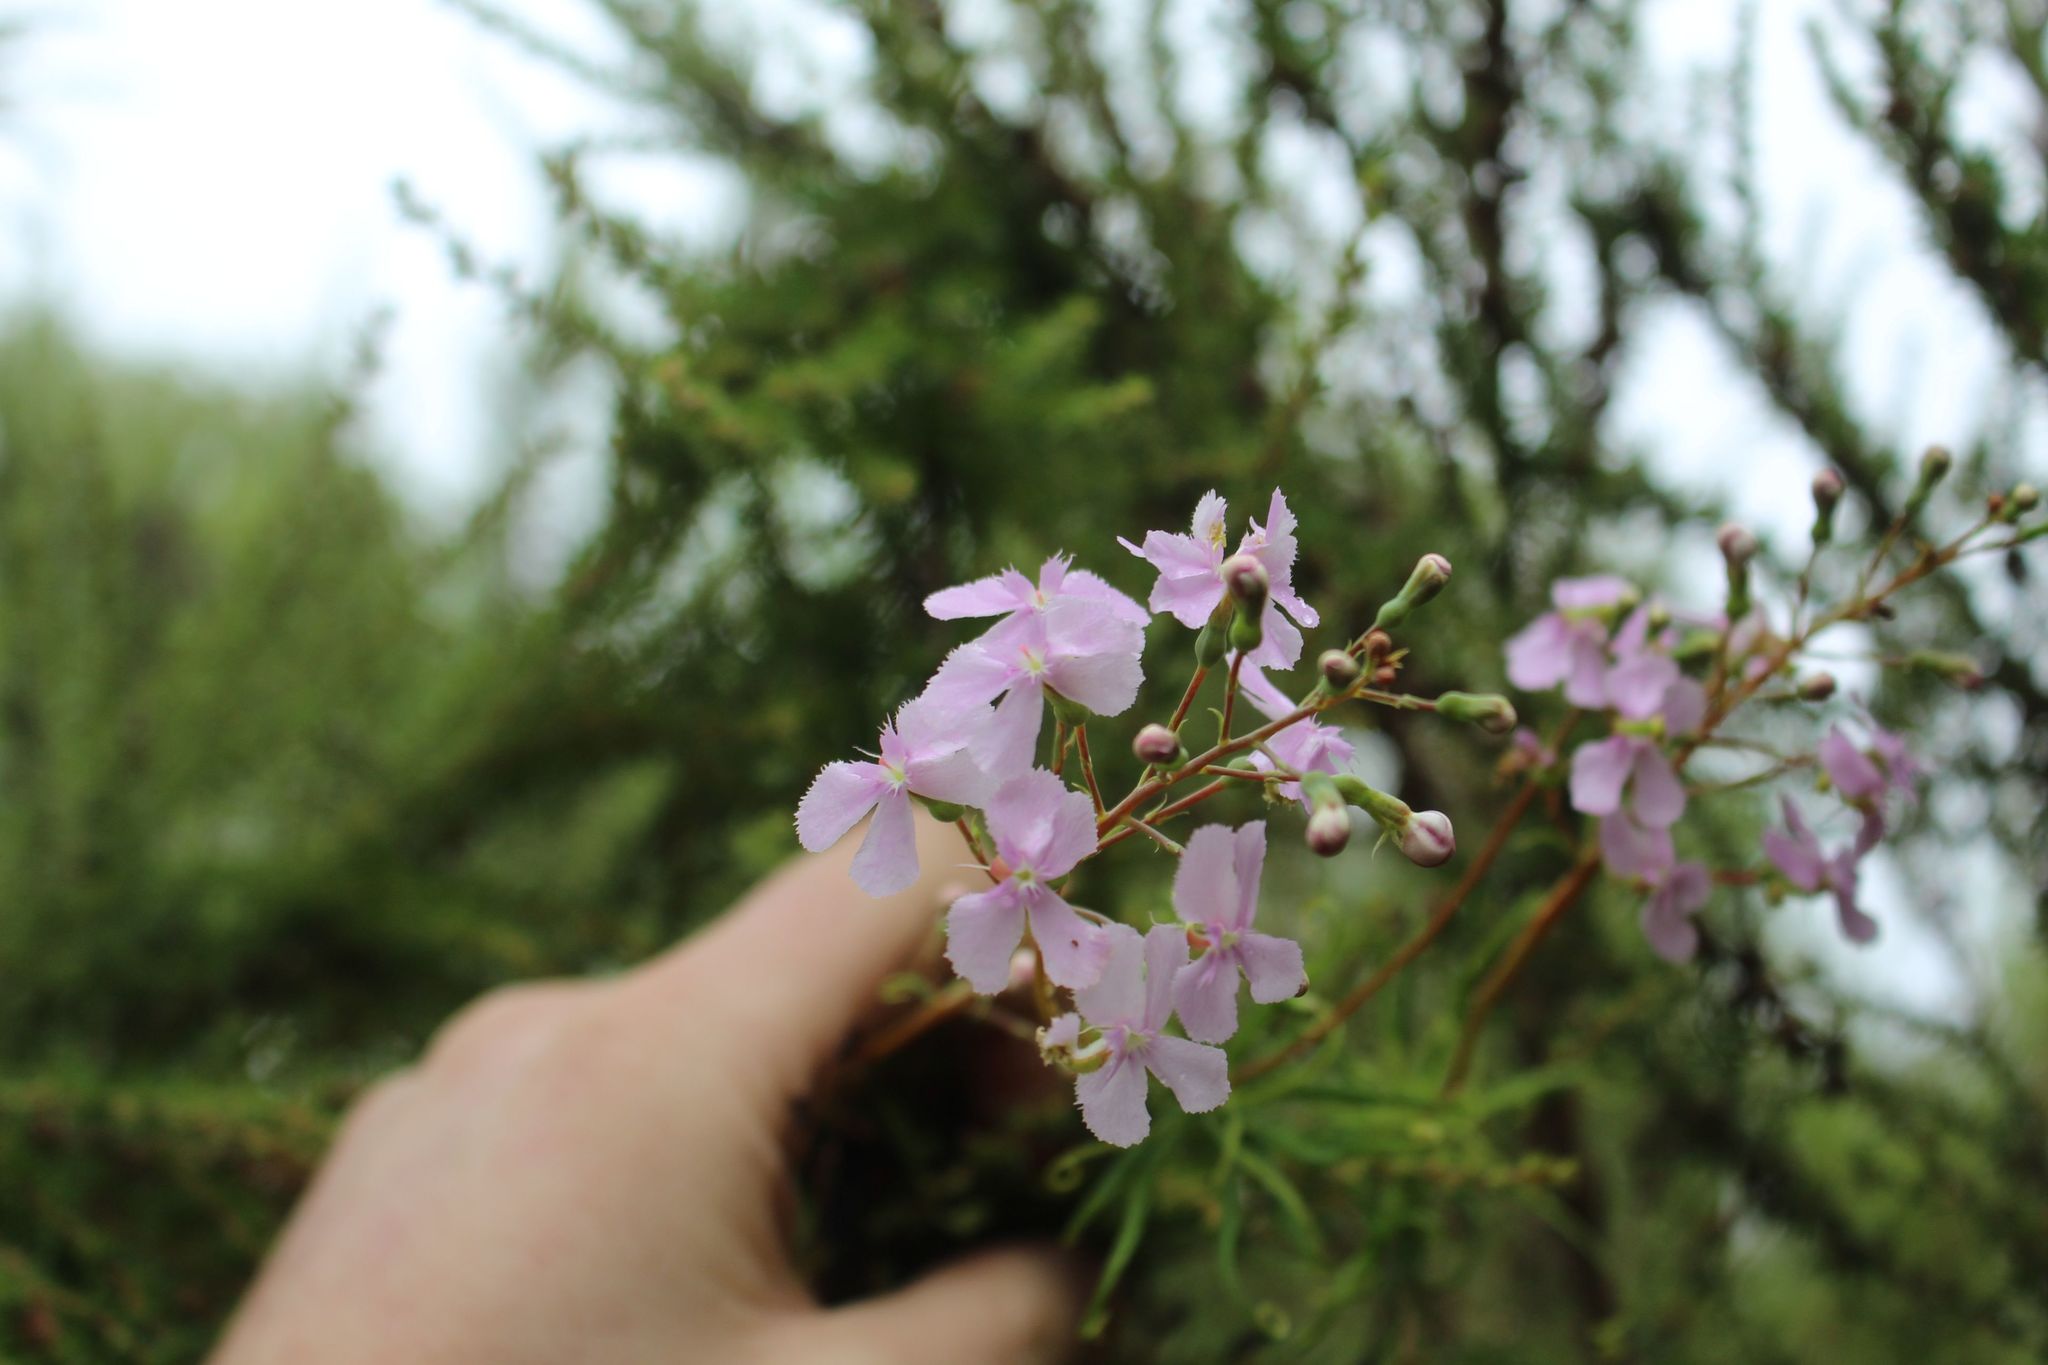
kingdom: Plantae
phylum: Tracheophyta
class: Magnoliopsida
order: Asterales
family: Stylidiaceae
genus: Stylidium
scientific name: Stylidium nymphaeum
